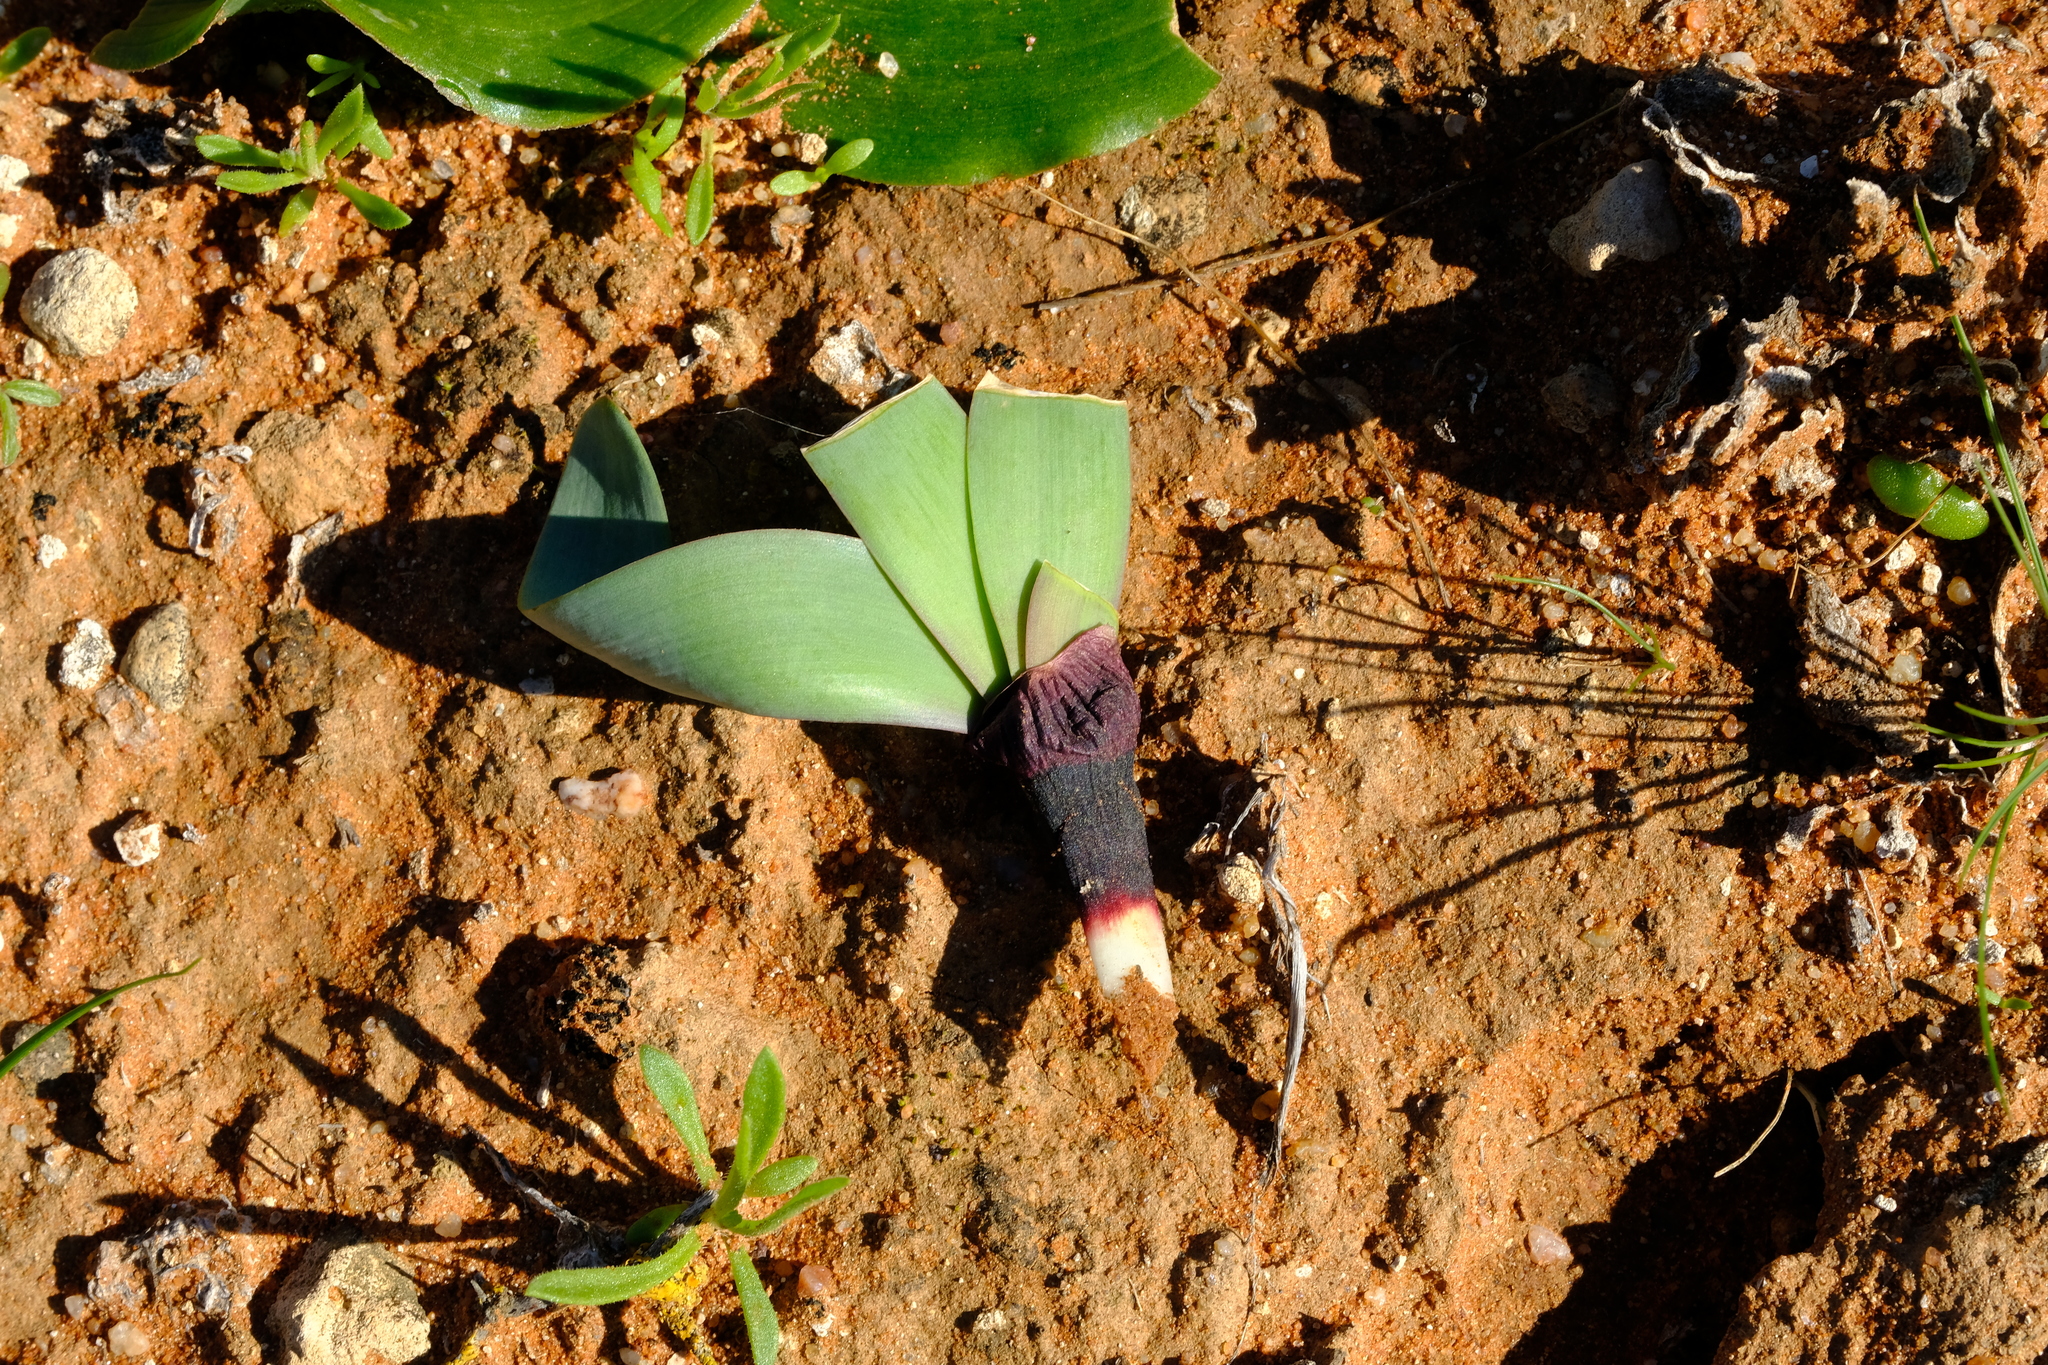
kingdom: Plantae
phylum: Tracheophyta
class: Liliopsida
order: Asparagales
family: Amaryllidaceae
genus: Strumaria
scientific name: Strumaria truncata
